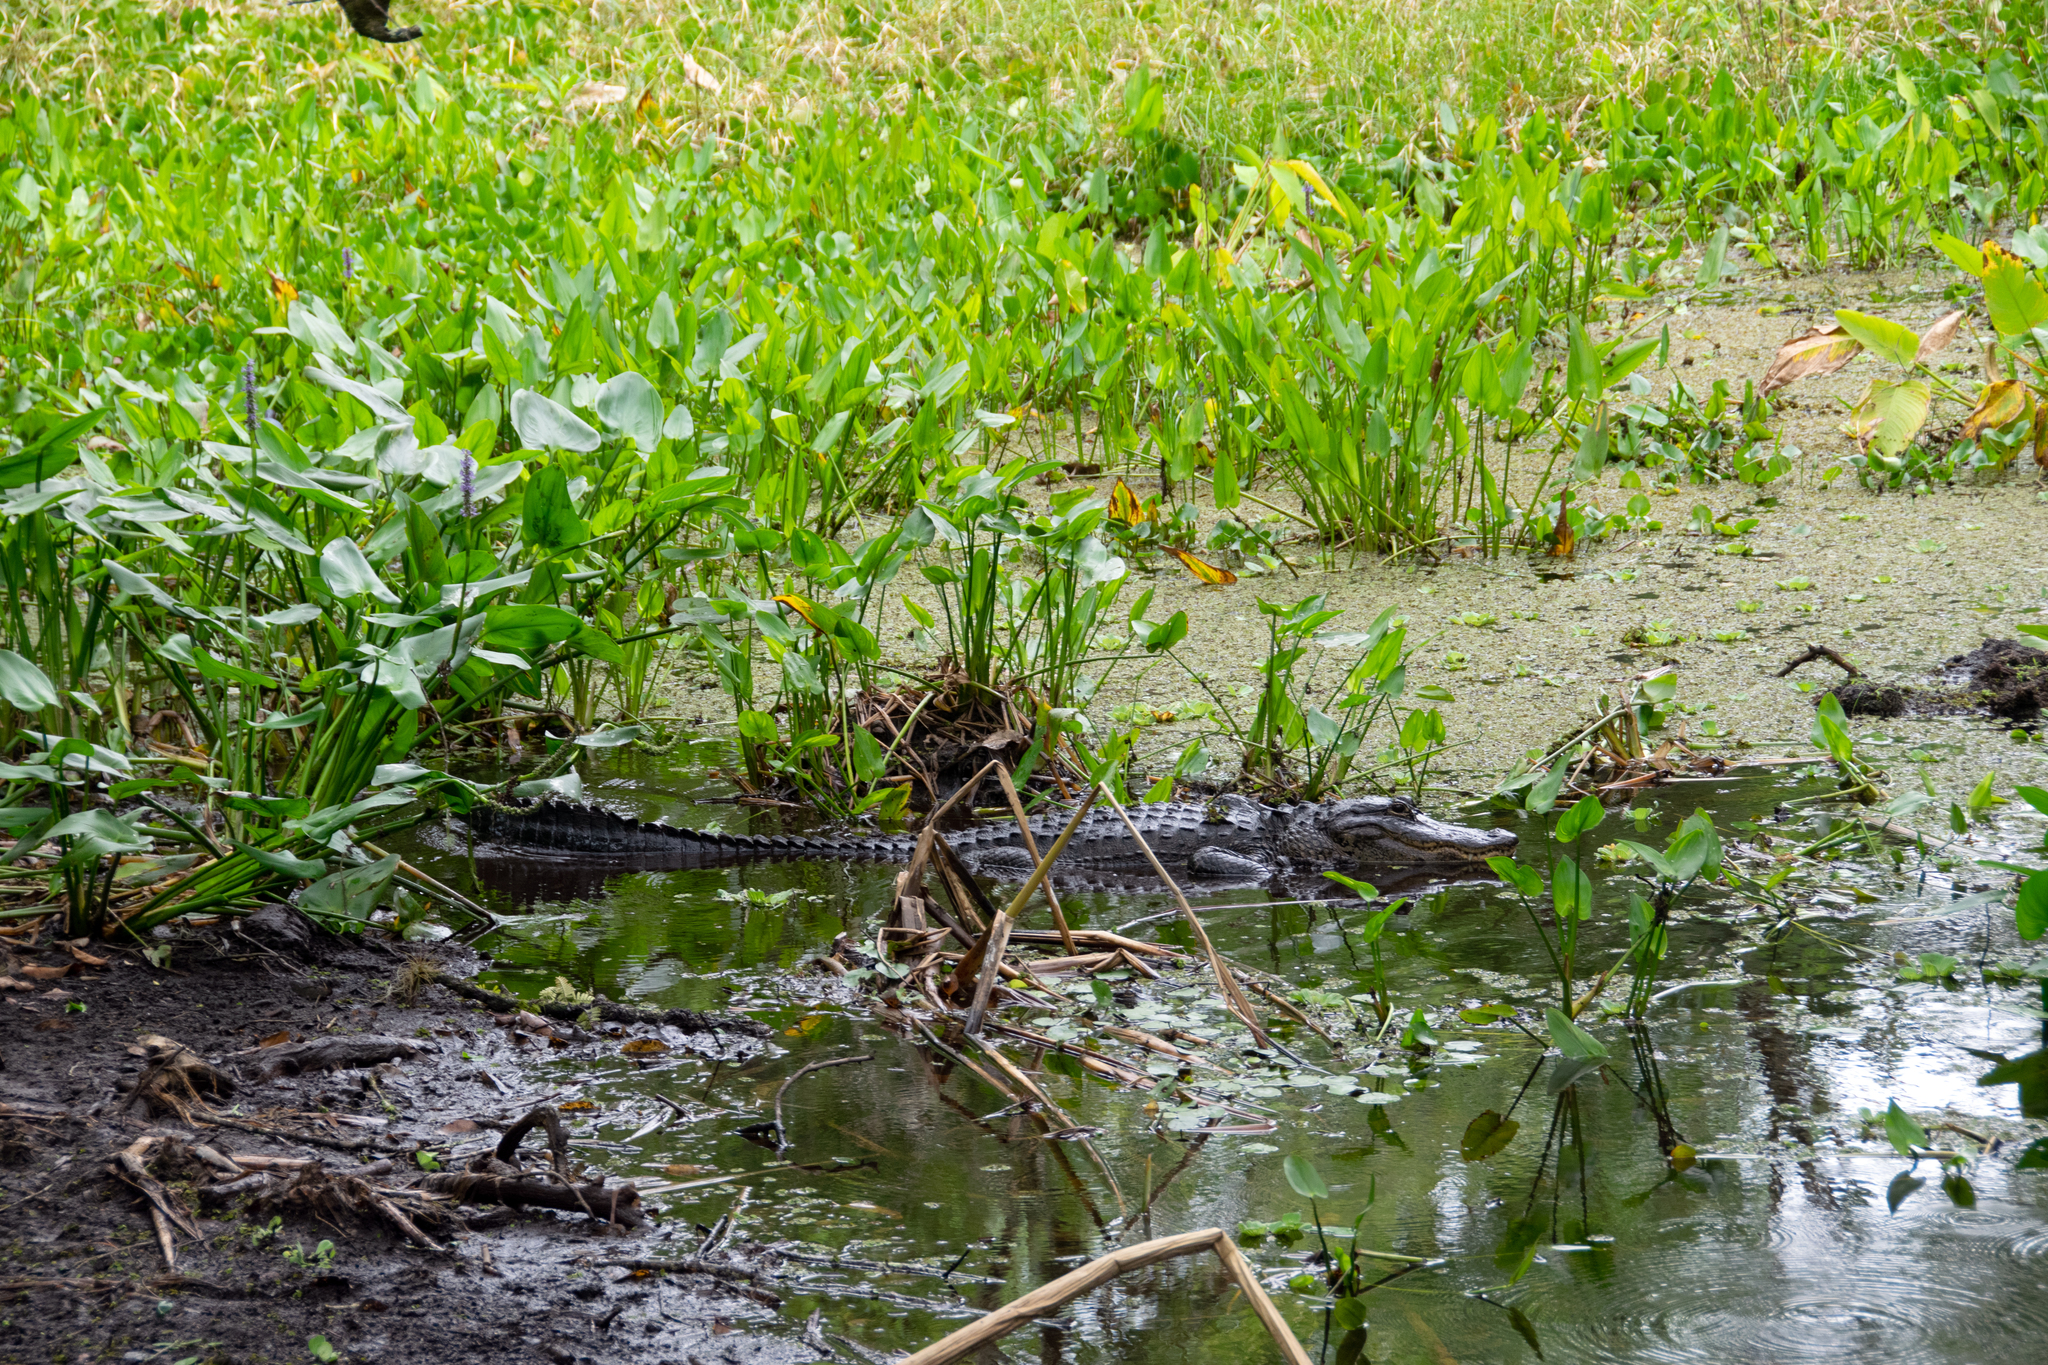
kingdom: Animalia
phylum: Chordata
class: Crocodylia
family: Alligatoridae
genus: Alligator
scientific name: Alligator mississippiensis
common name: American alligator
